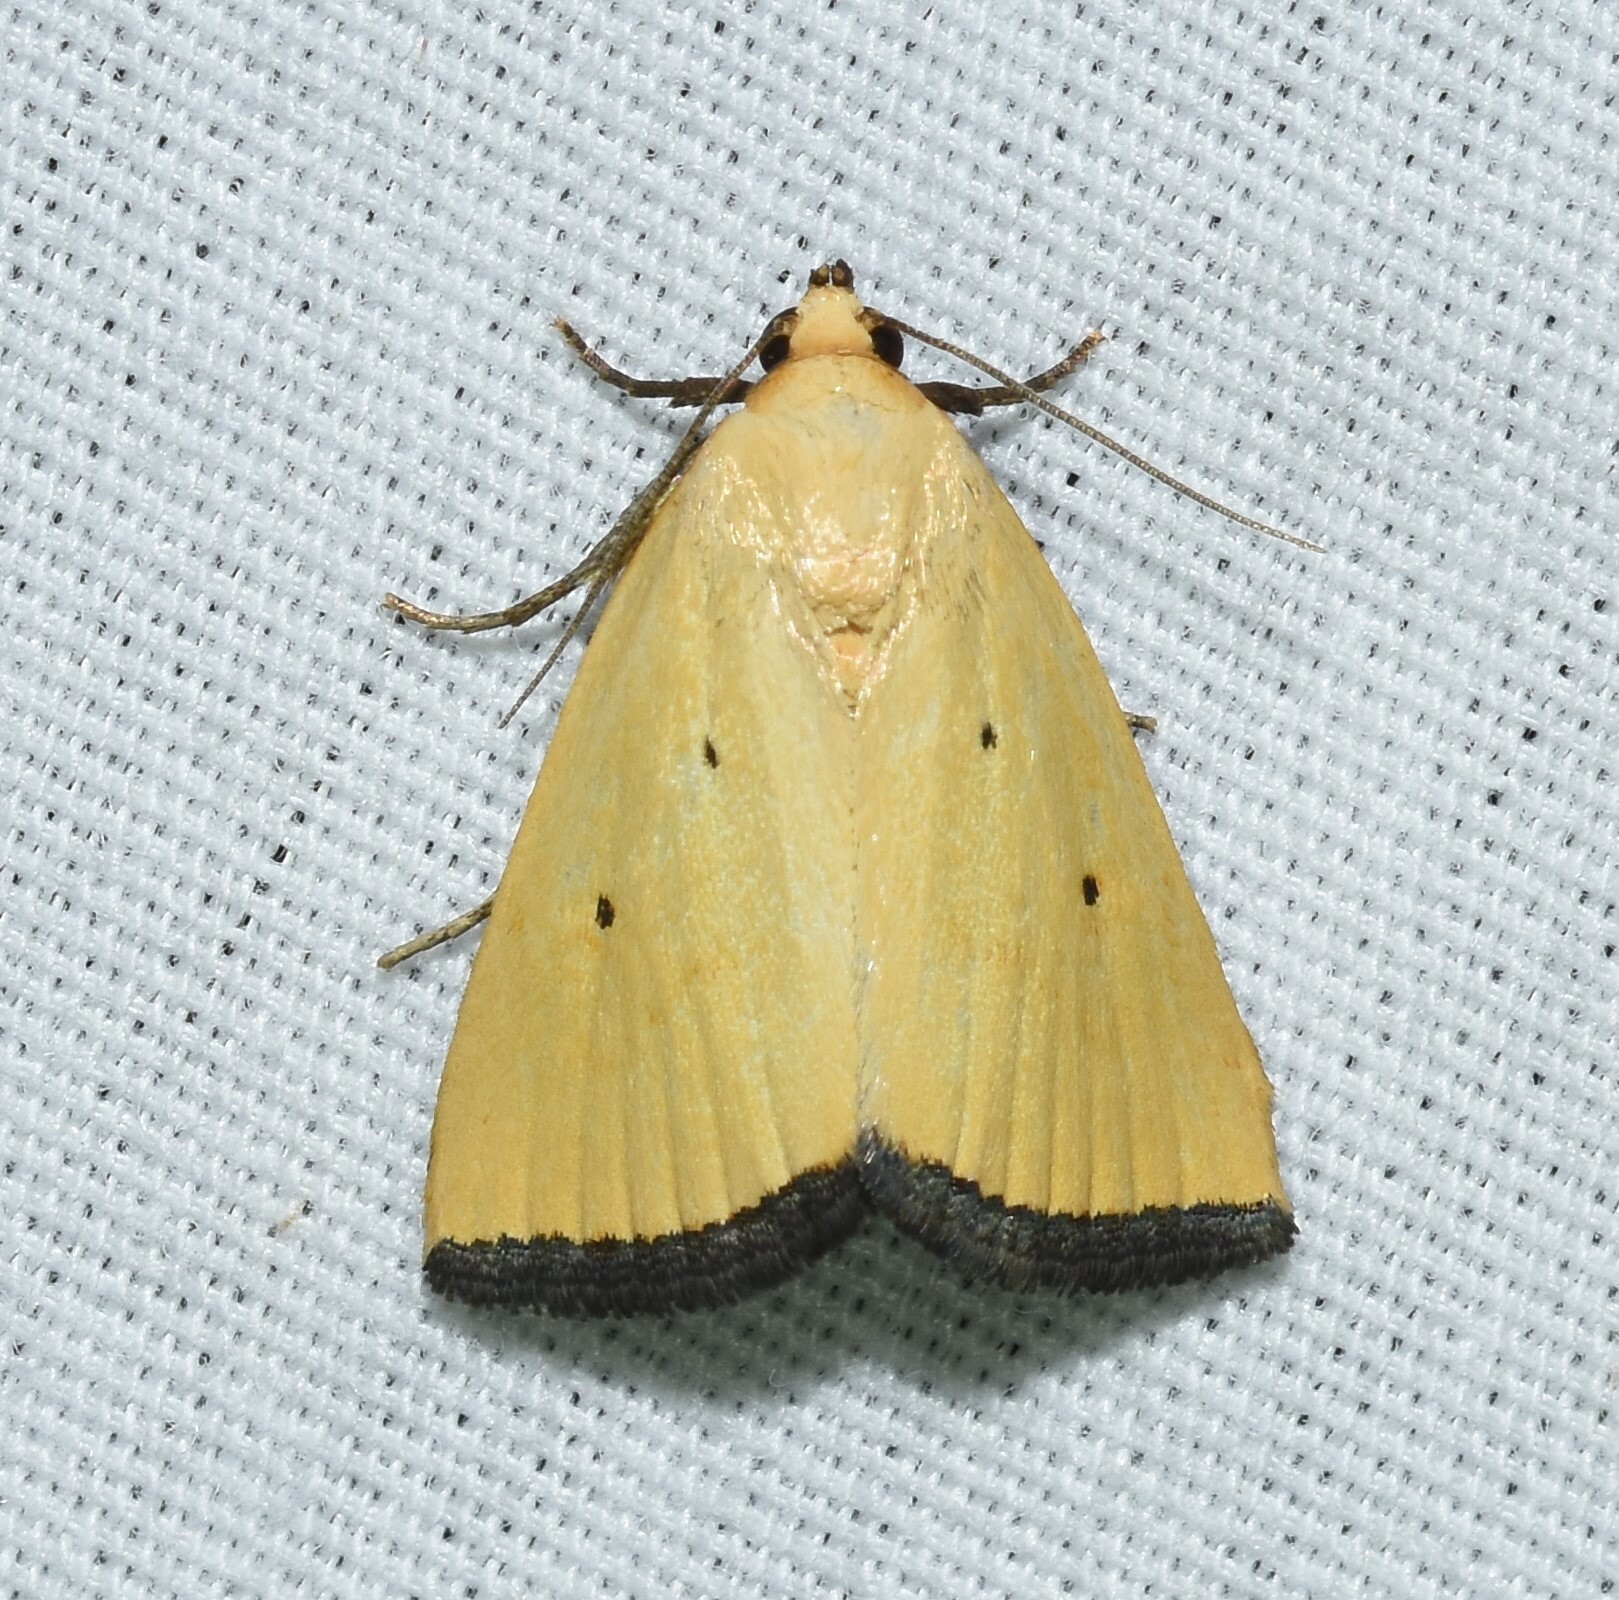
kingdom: Animalia
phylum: Arthropoda
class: Insecta
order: Lepidoptera
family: Noctuidae
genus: Marimatha
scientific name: Marimatha nigrofimbria
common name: Black-bordered lemon moth
